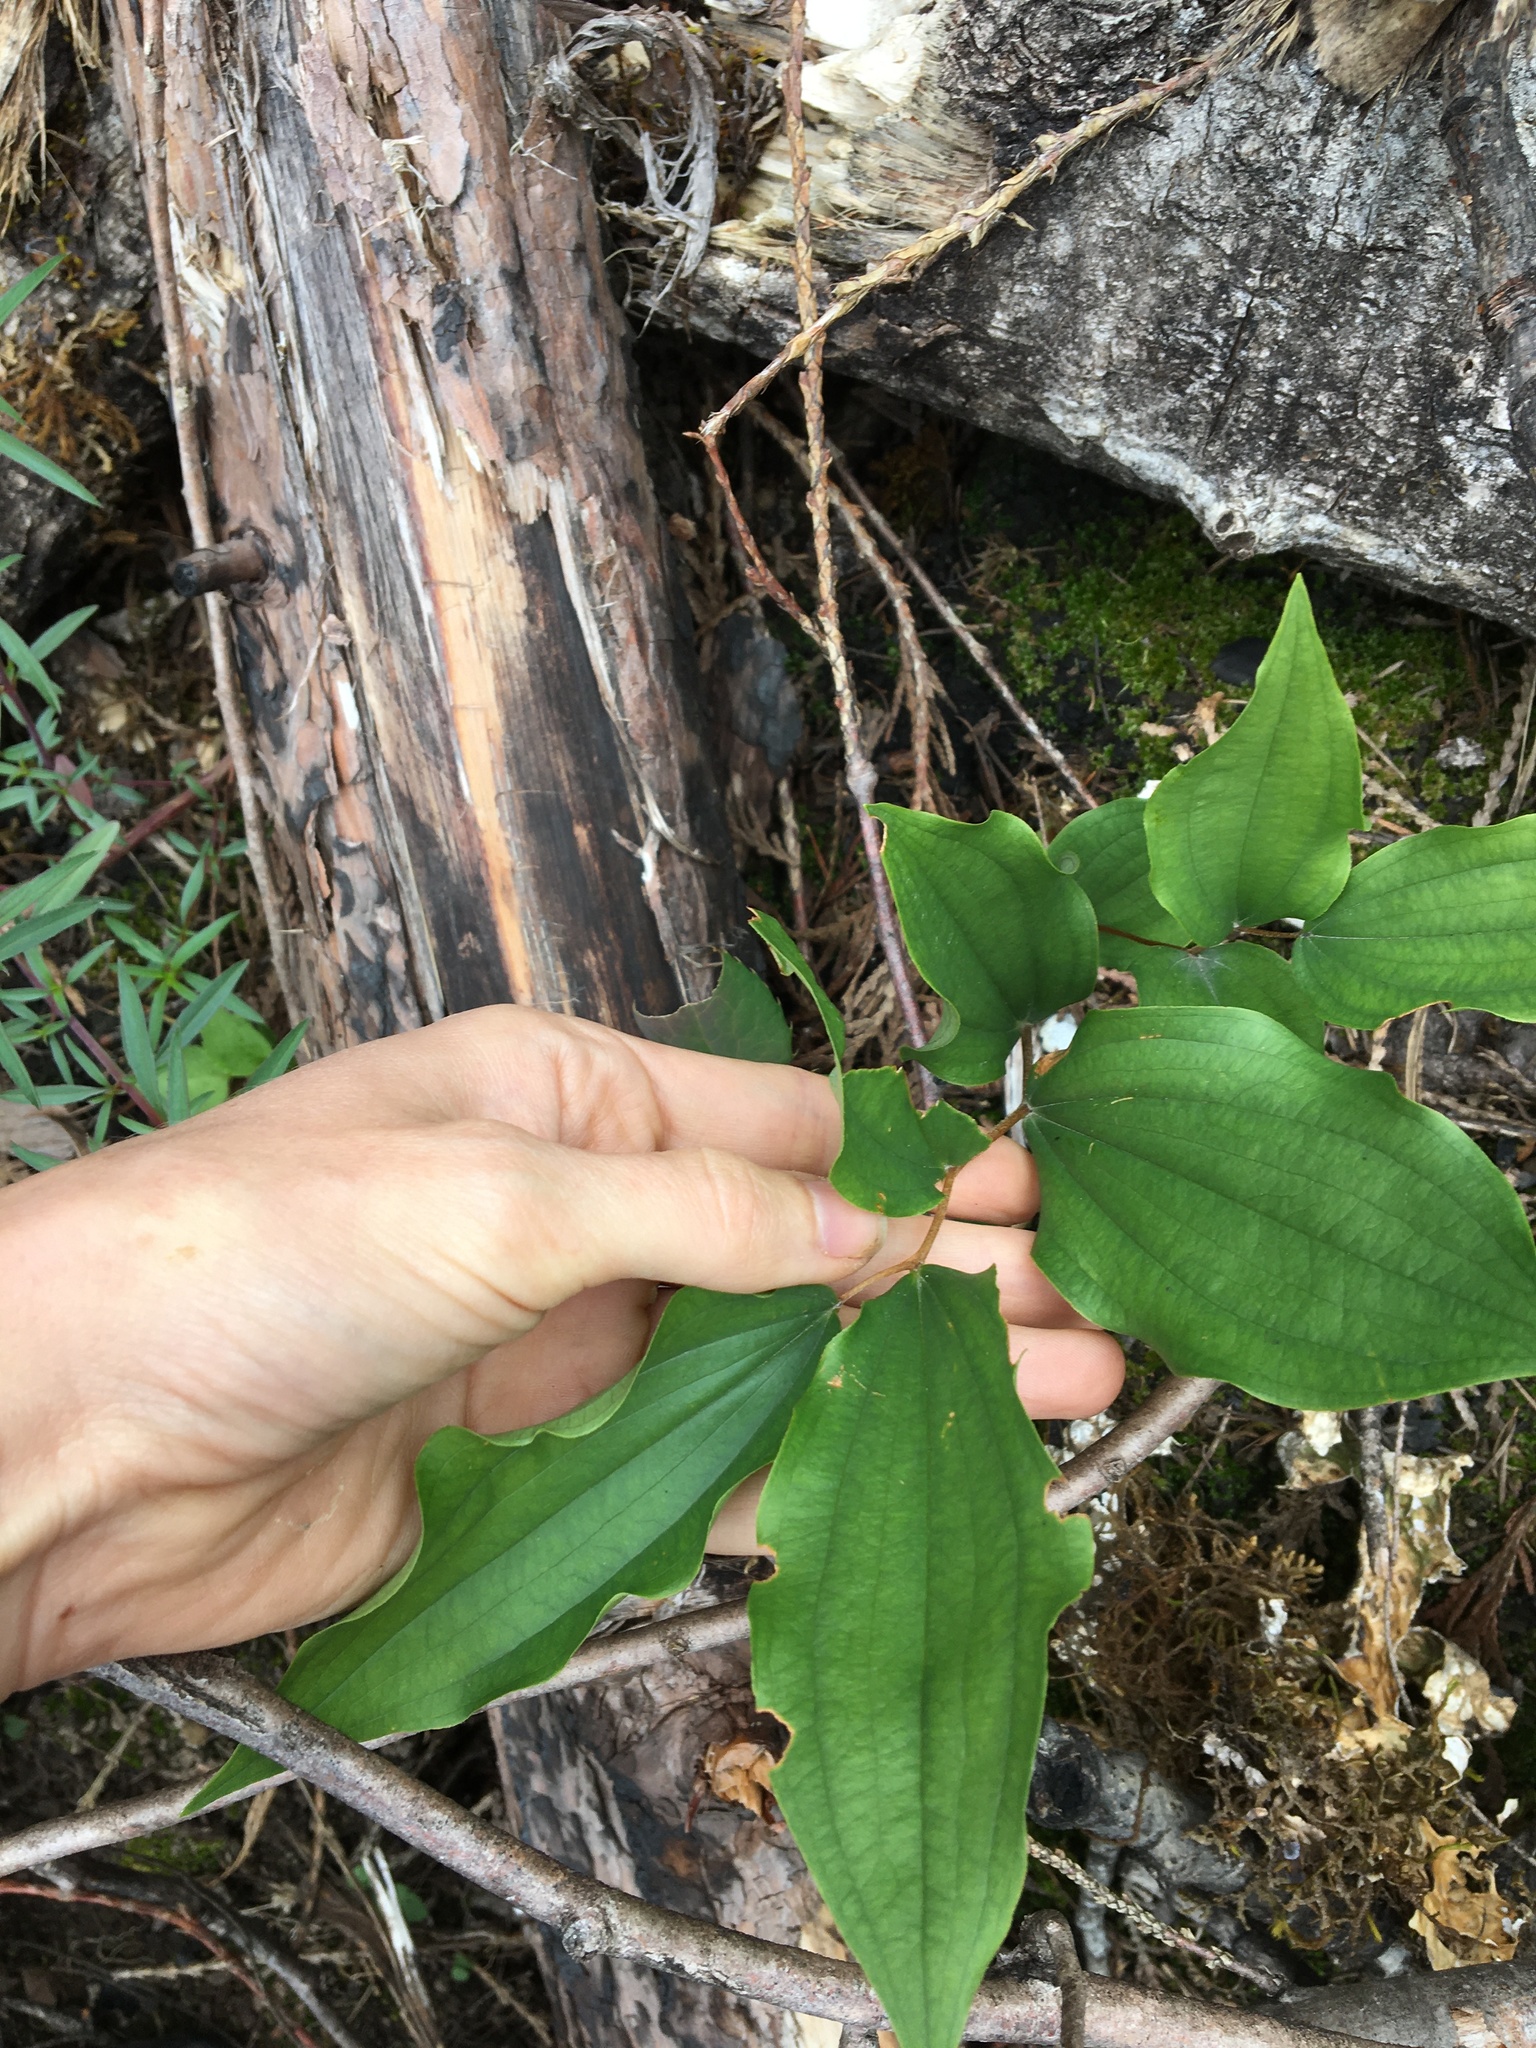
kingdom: Plantae
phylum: Tracheophyta
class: Liliopsida
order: Liliales
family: Liliaceae
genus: Prosartes
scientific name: Prosartes hookeri
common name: Fairy-bells
